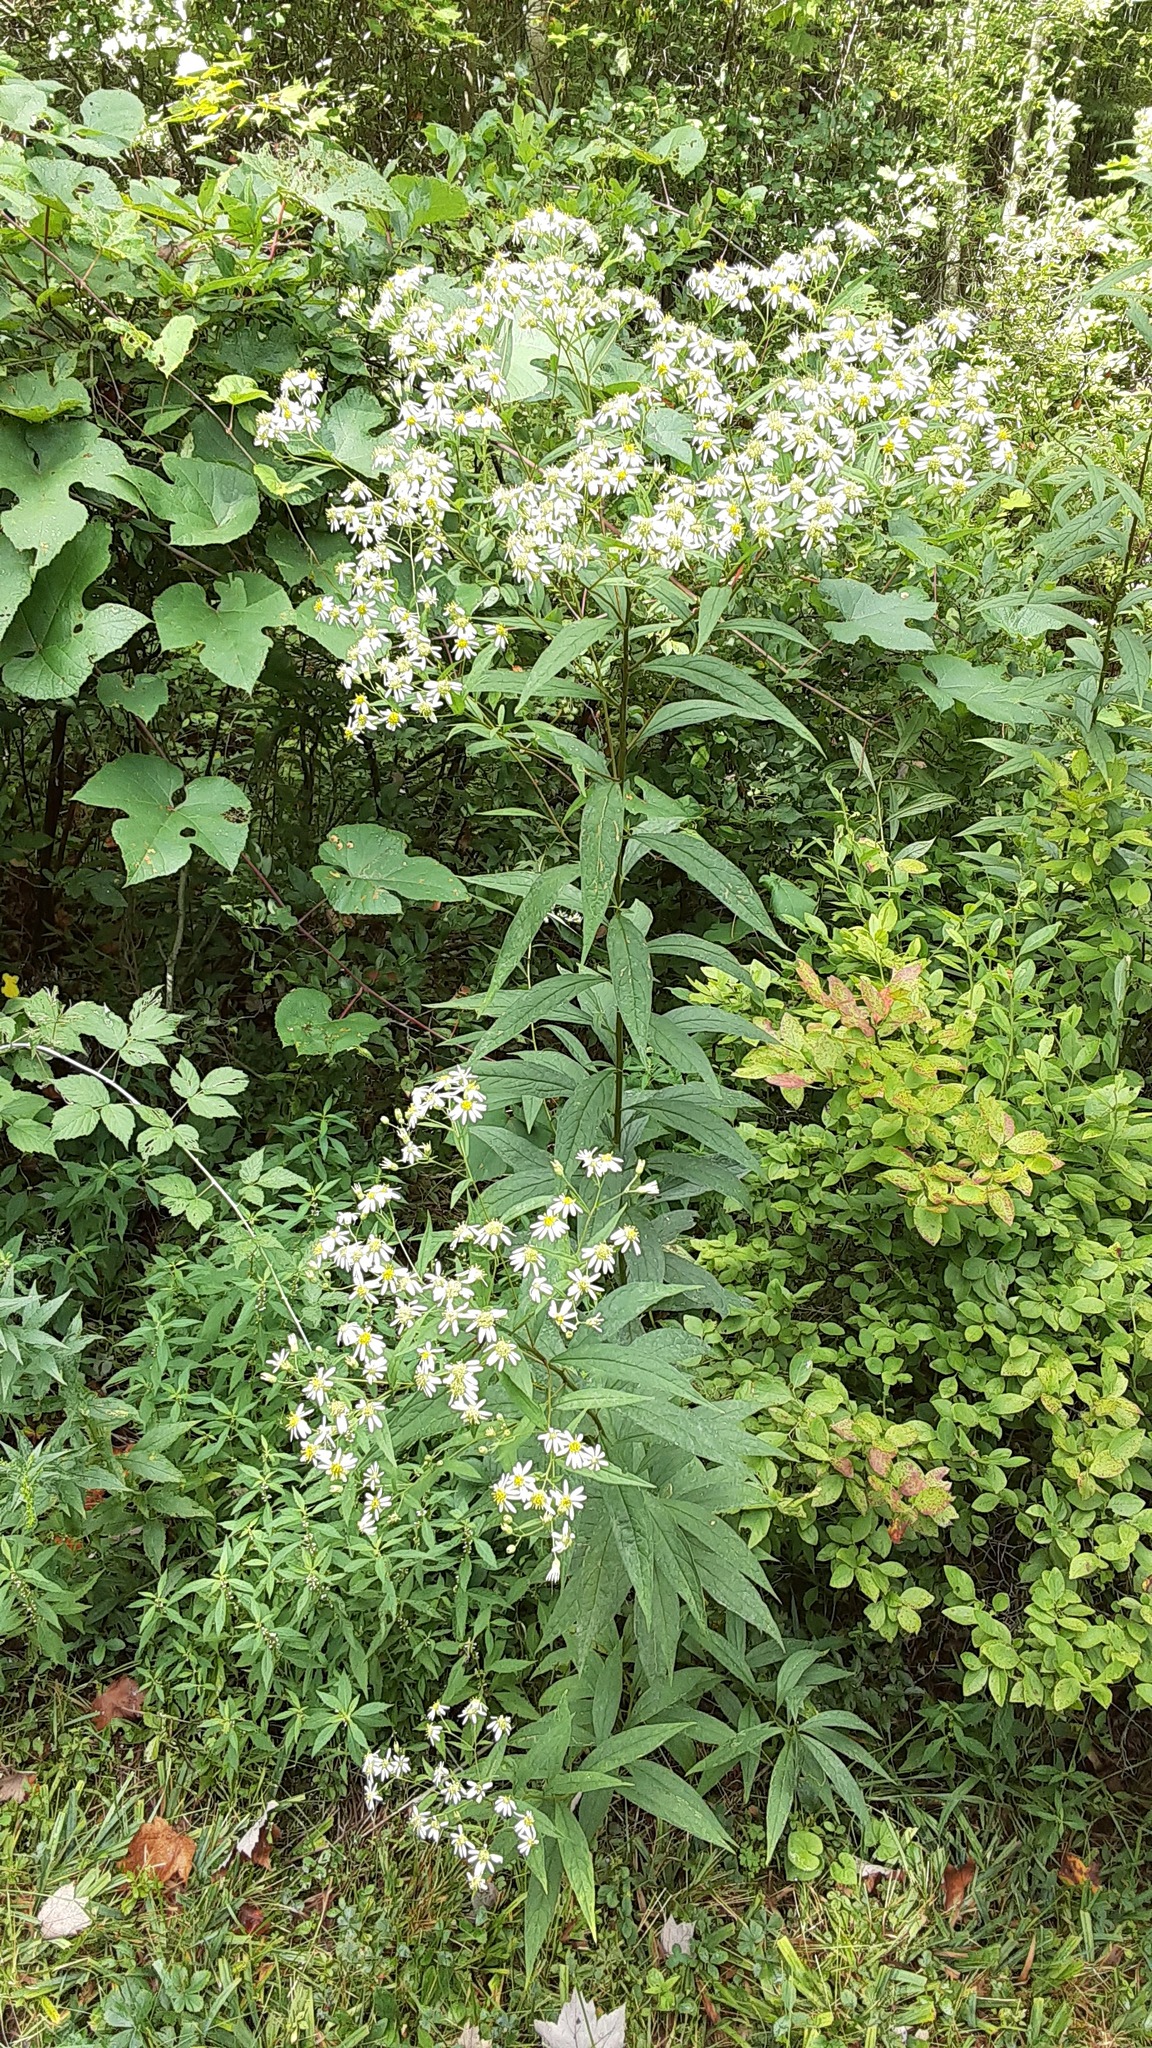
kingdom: Plantae
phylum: Tracheophyta
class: Magnoliopsida
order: Asterales
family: Asteraceae
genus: Doellingeria
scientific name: Doellingeria umbellata
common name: Flat-top white aster
